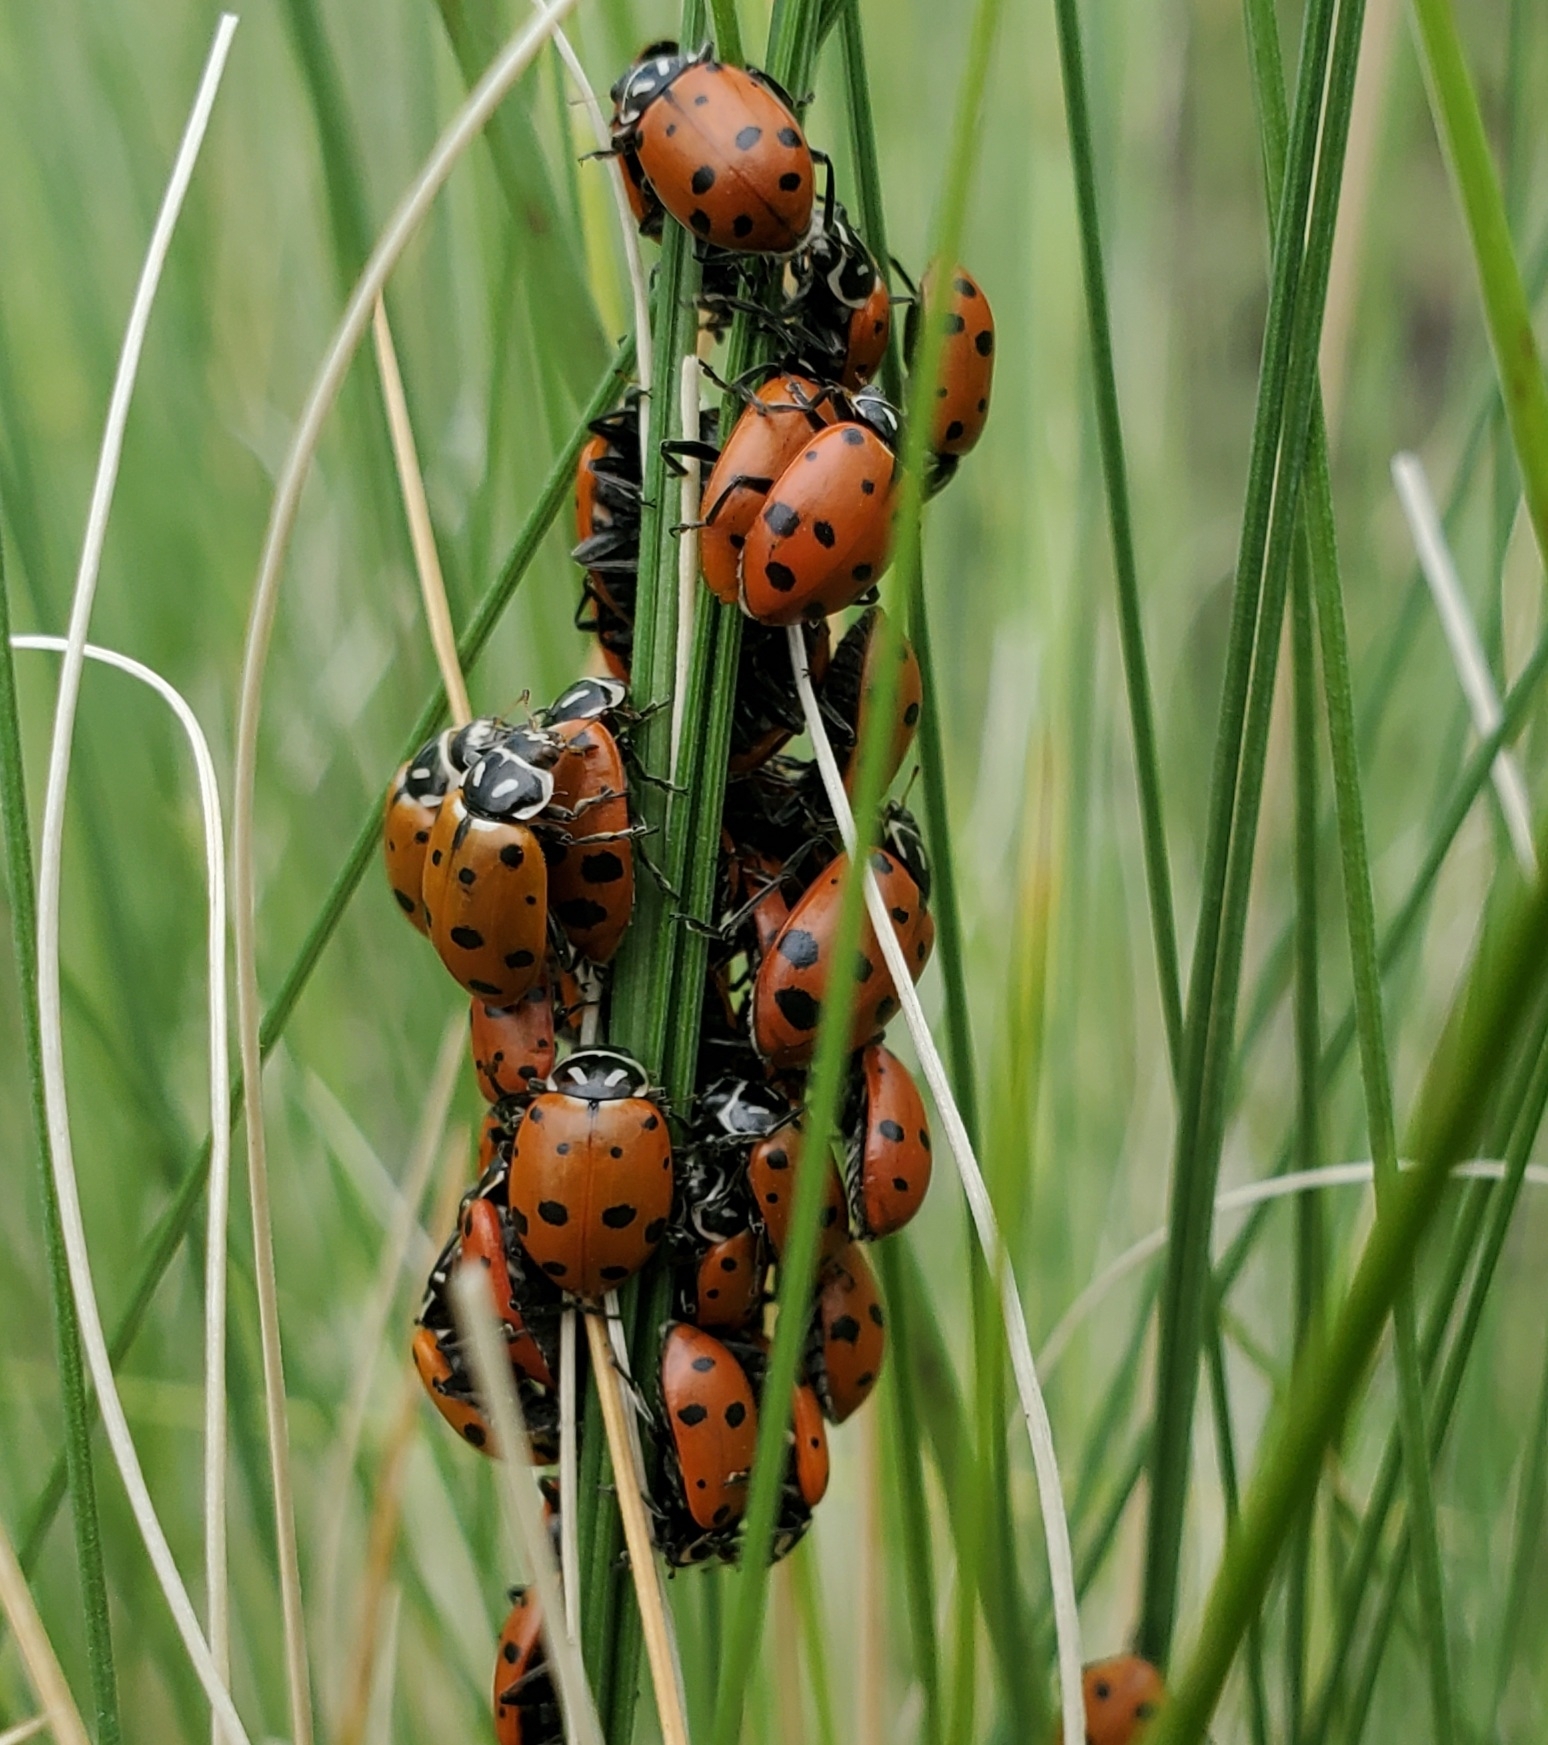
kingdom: Animalia
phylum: Arthropoda
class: Insecta
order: Coleoptera
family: Coccinellidae
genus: Hippodamia
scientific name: Hippodamia convergens
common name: Convergent lady beetle
